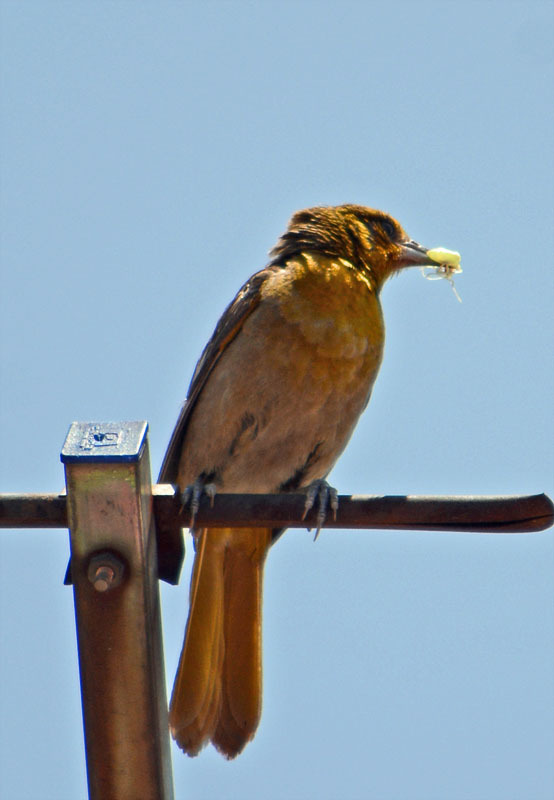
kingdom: Animalia
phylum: Chordata
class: Aves
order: Passeriformes
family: Icteridae
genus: Icterus
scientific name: Icterus abeillei
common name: Black-backed oriole
